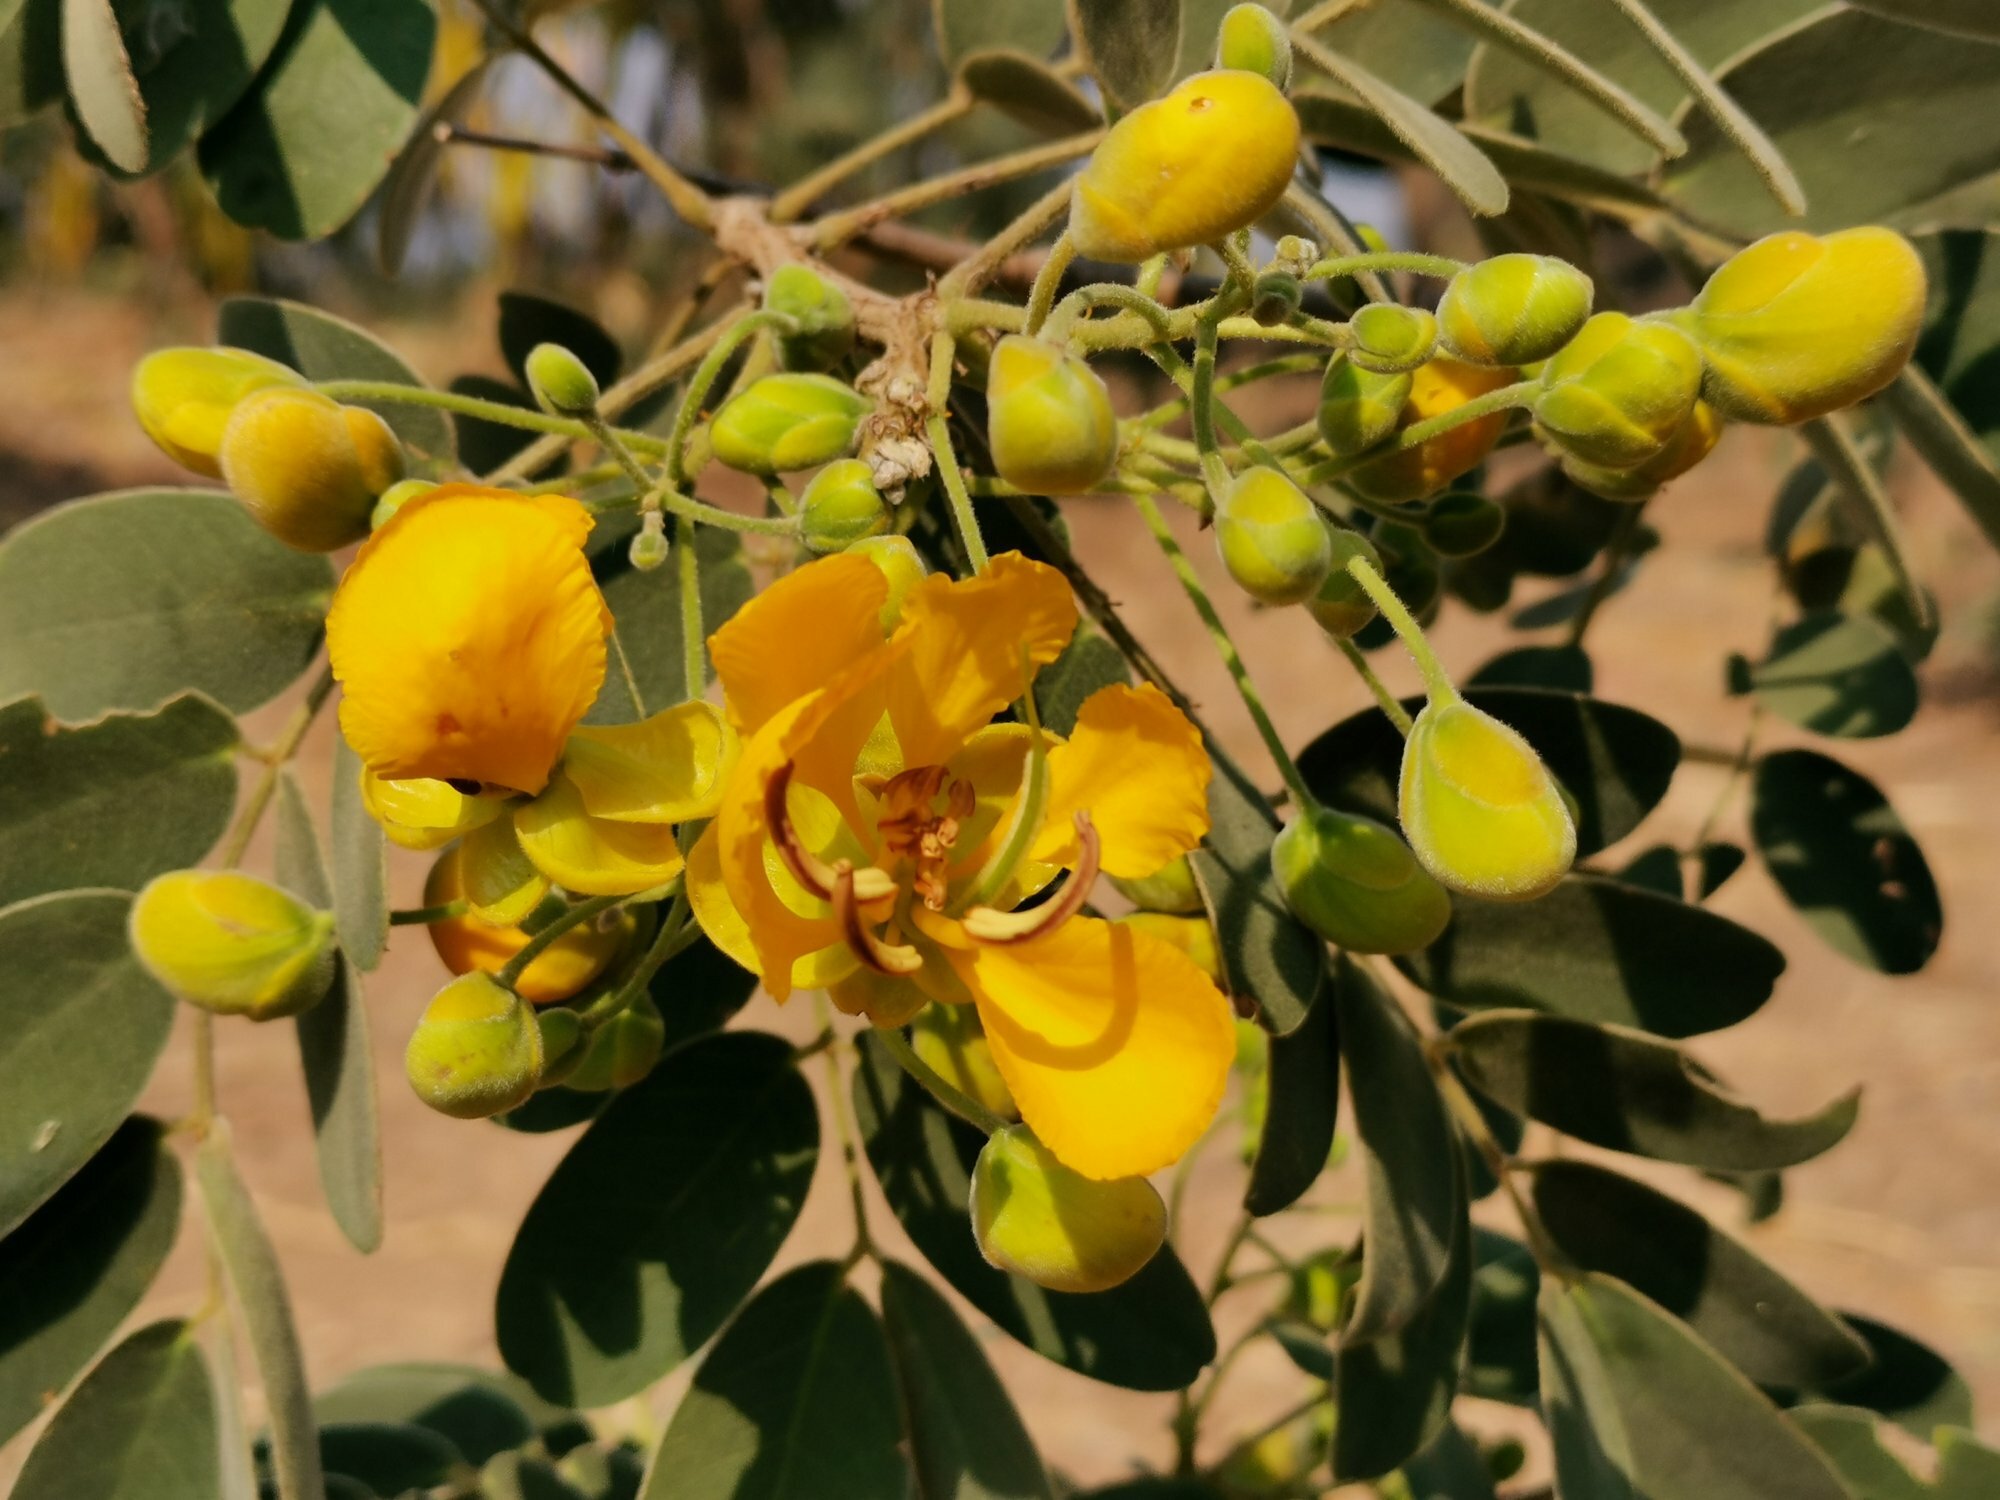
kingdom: Plantae
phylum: Tracheophyta
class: Magnoliopsida
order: Fabales
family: Fabaceae
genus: Cassia
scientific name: Cassia abbreviata
